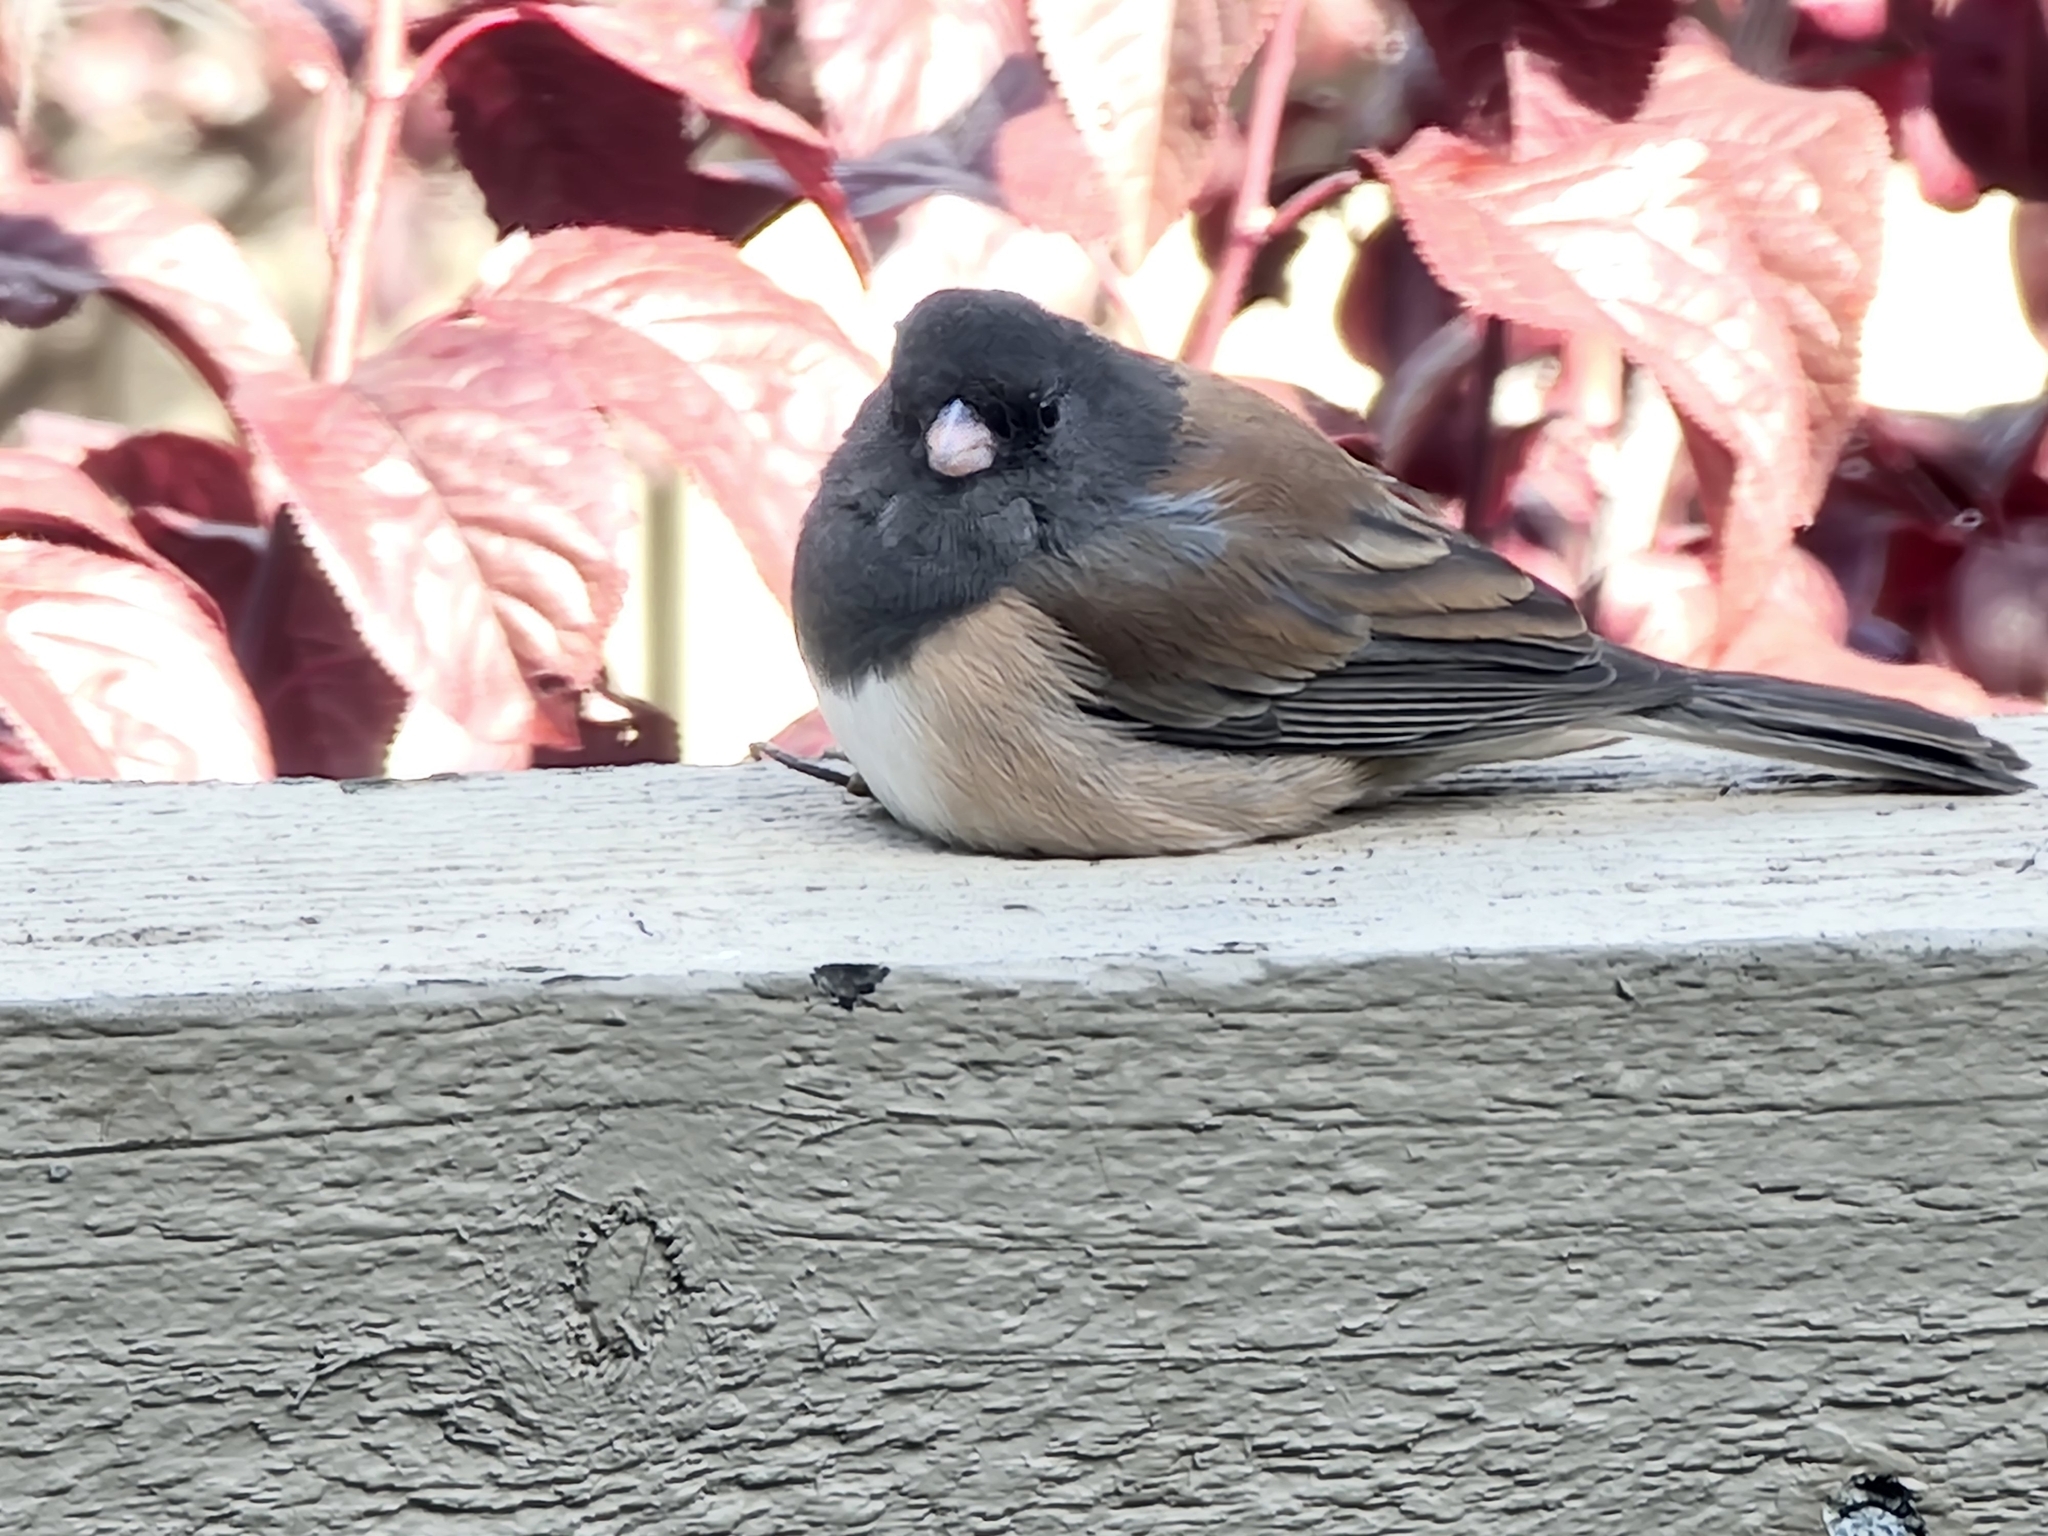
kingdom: Animalia
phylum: Chordata
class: Aves
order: Passeriformes
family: Passerellidae
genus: Junco
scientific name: Junco hyemalis
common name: Dark-eyed junco
